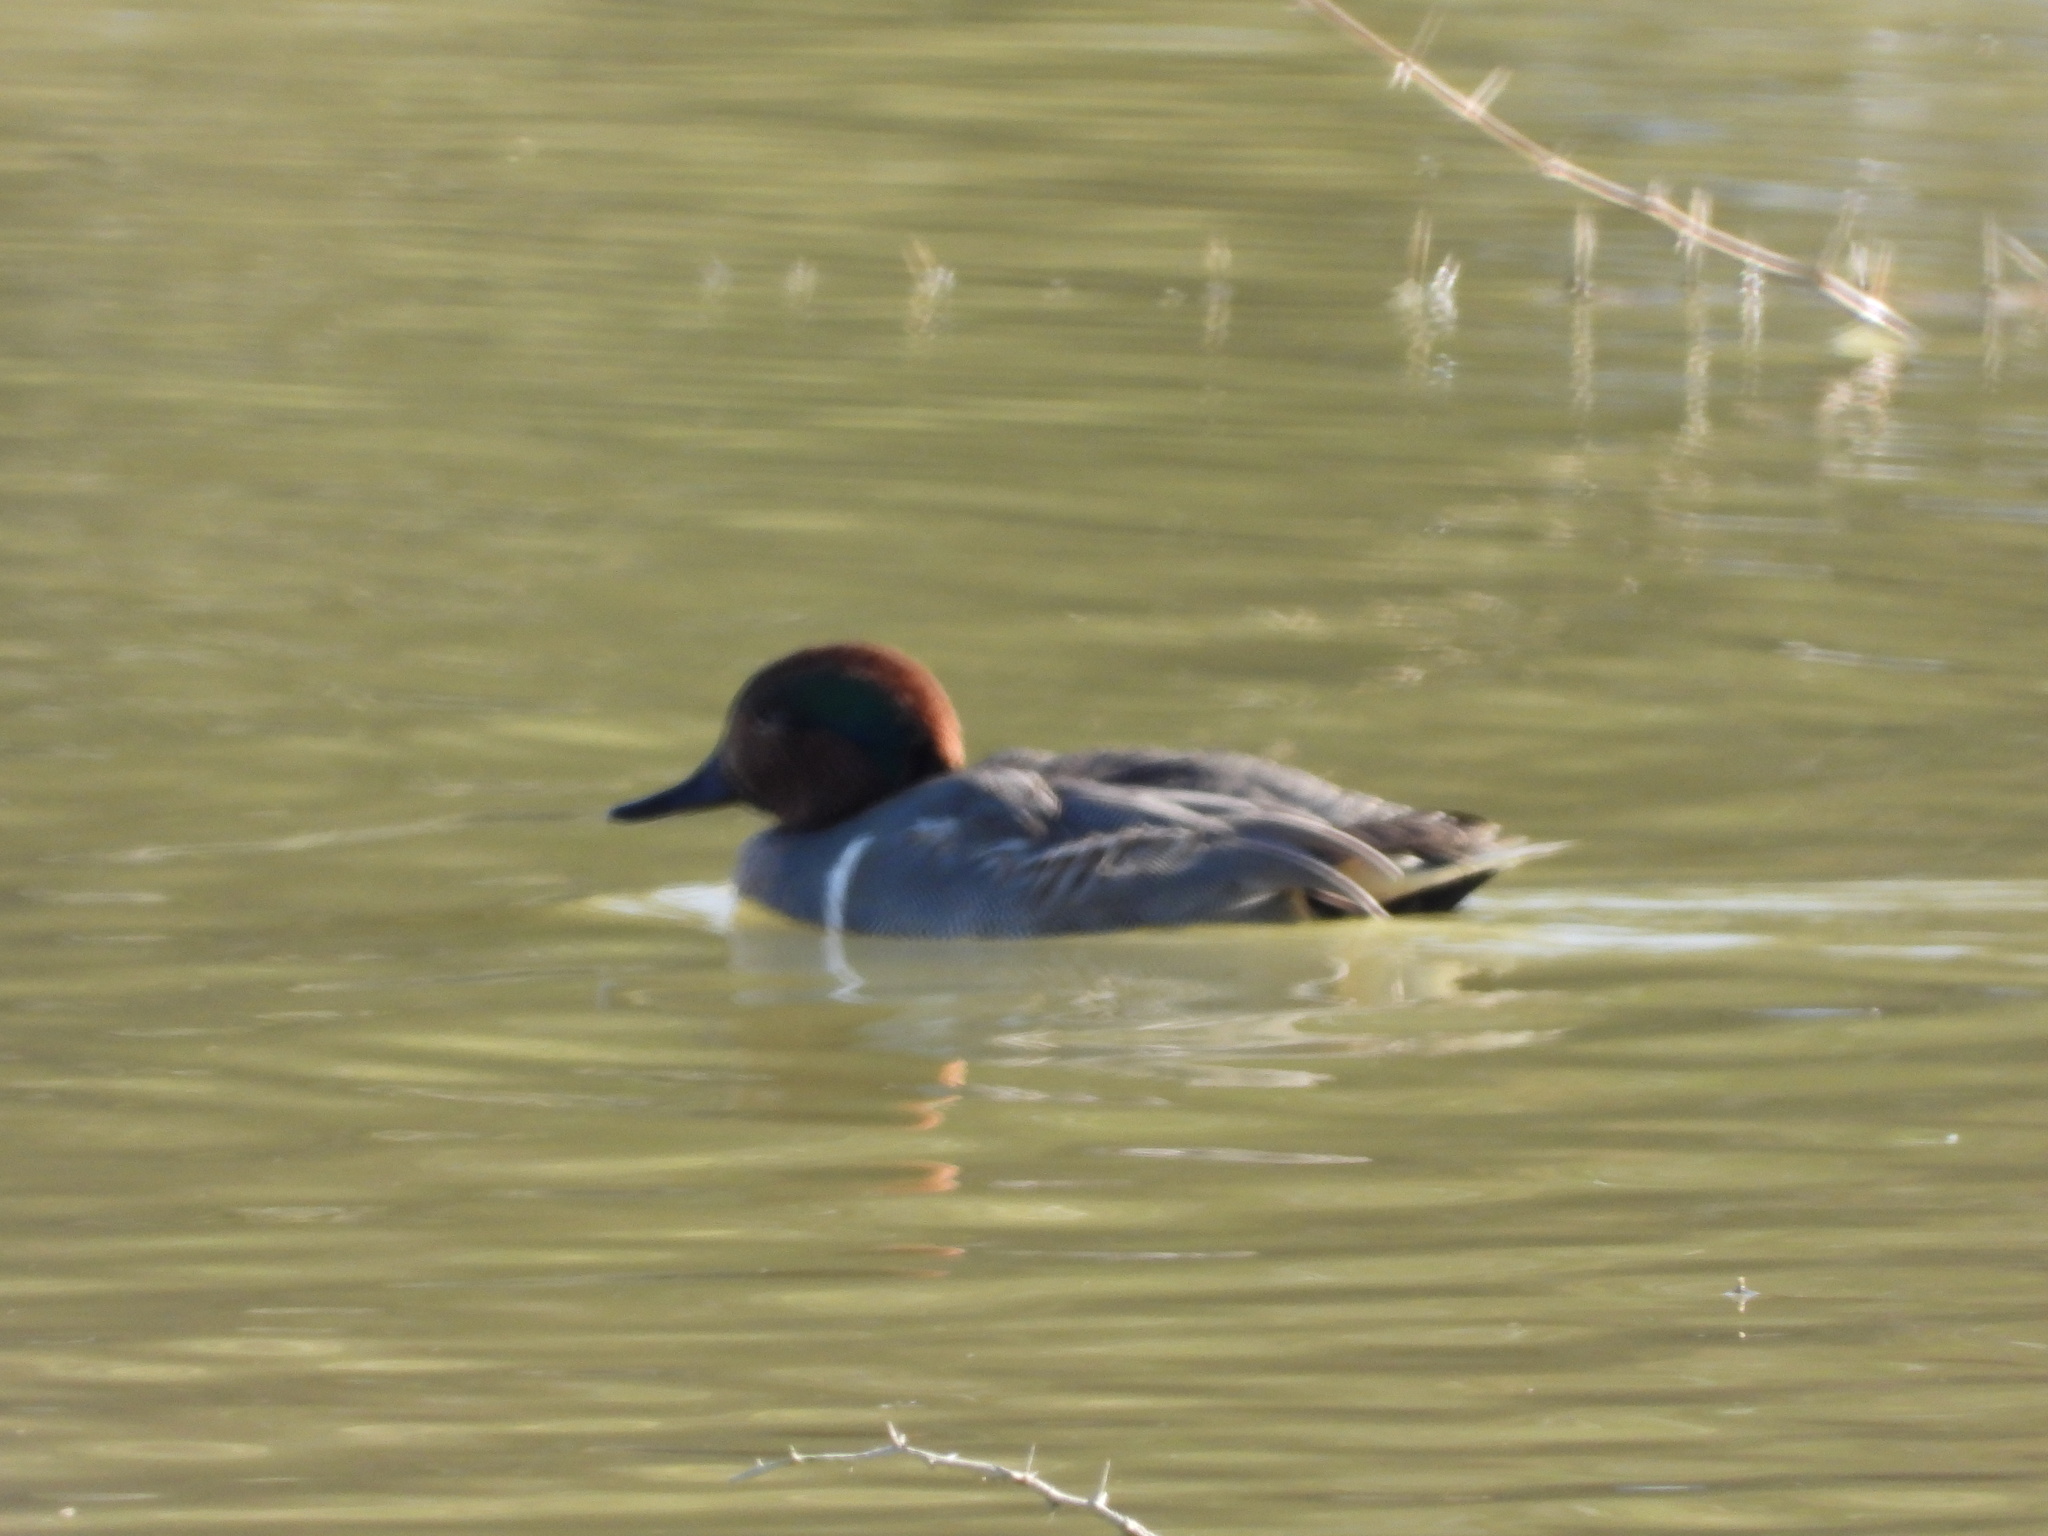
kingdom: Animalia
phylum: Chordata
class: Aves
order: Anseriformes
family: Anatidae
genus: Anas
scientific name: Anas crecca
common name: Eurasian teal
